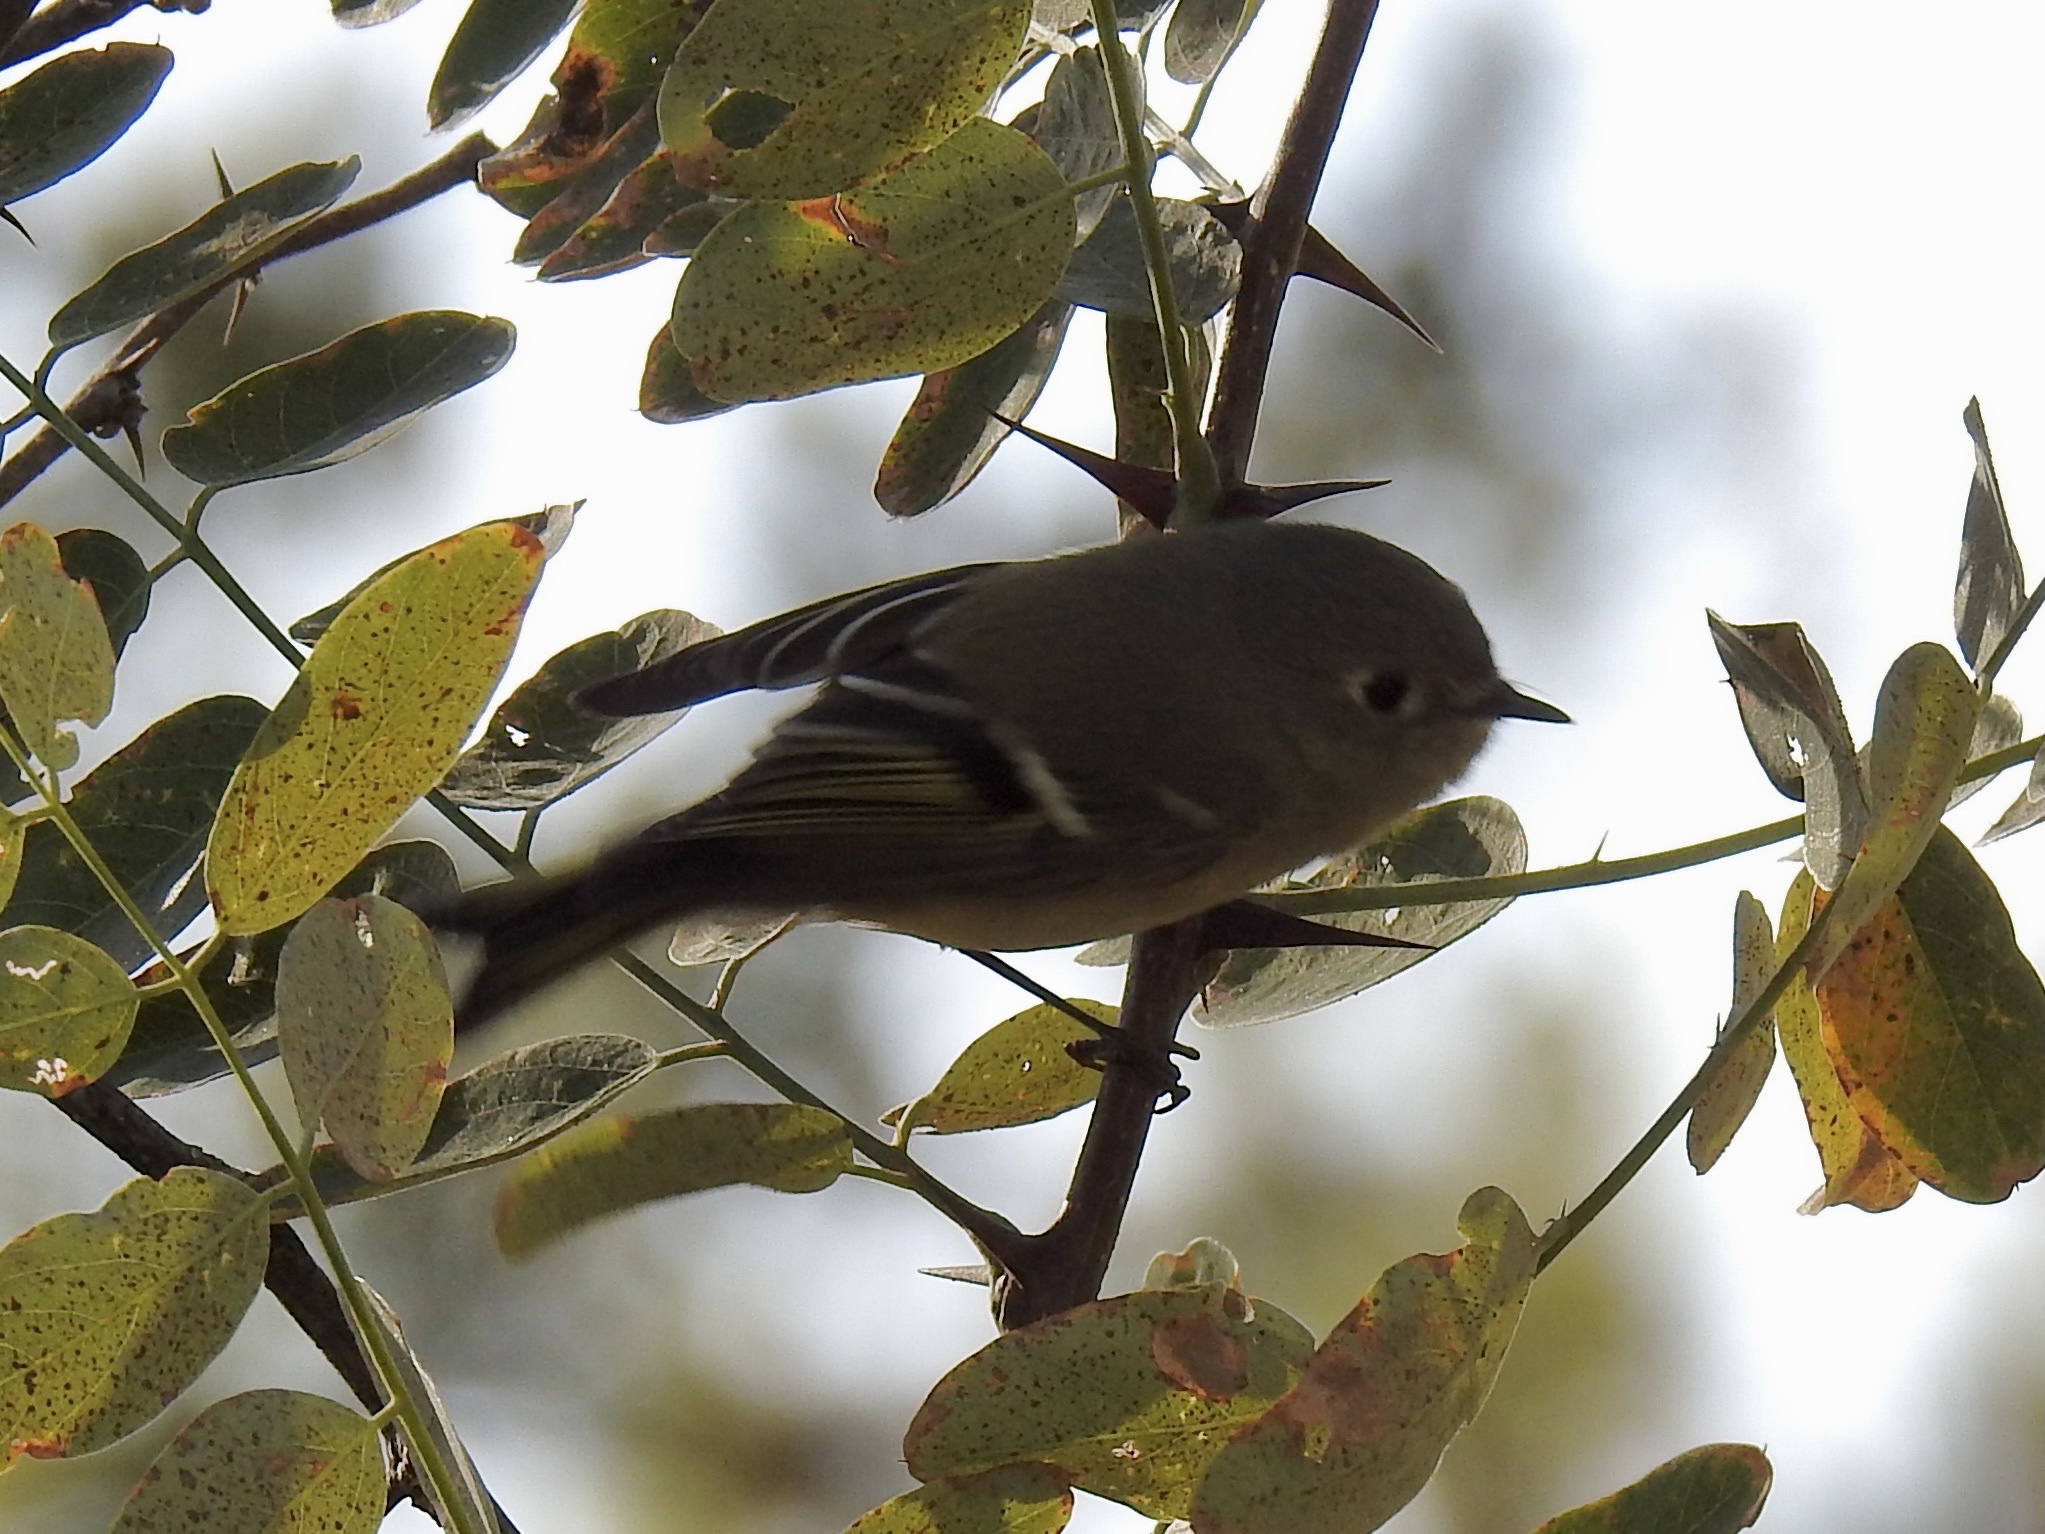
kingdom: Animalia
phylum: Chordata
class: Aves
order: Passeriformes
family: Regulidae
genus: Regulus
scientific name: Regulus calendula
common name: Ruby-crowned kinglet
